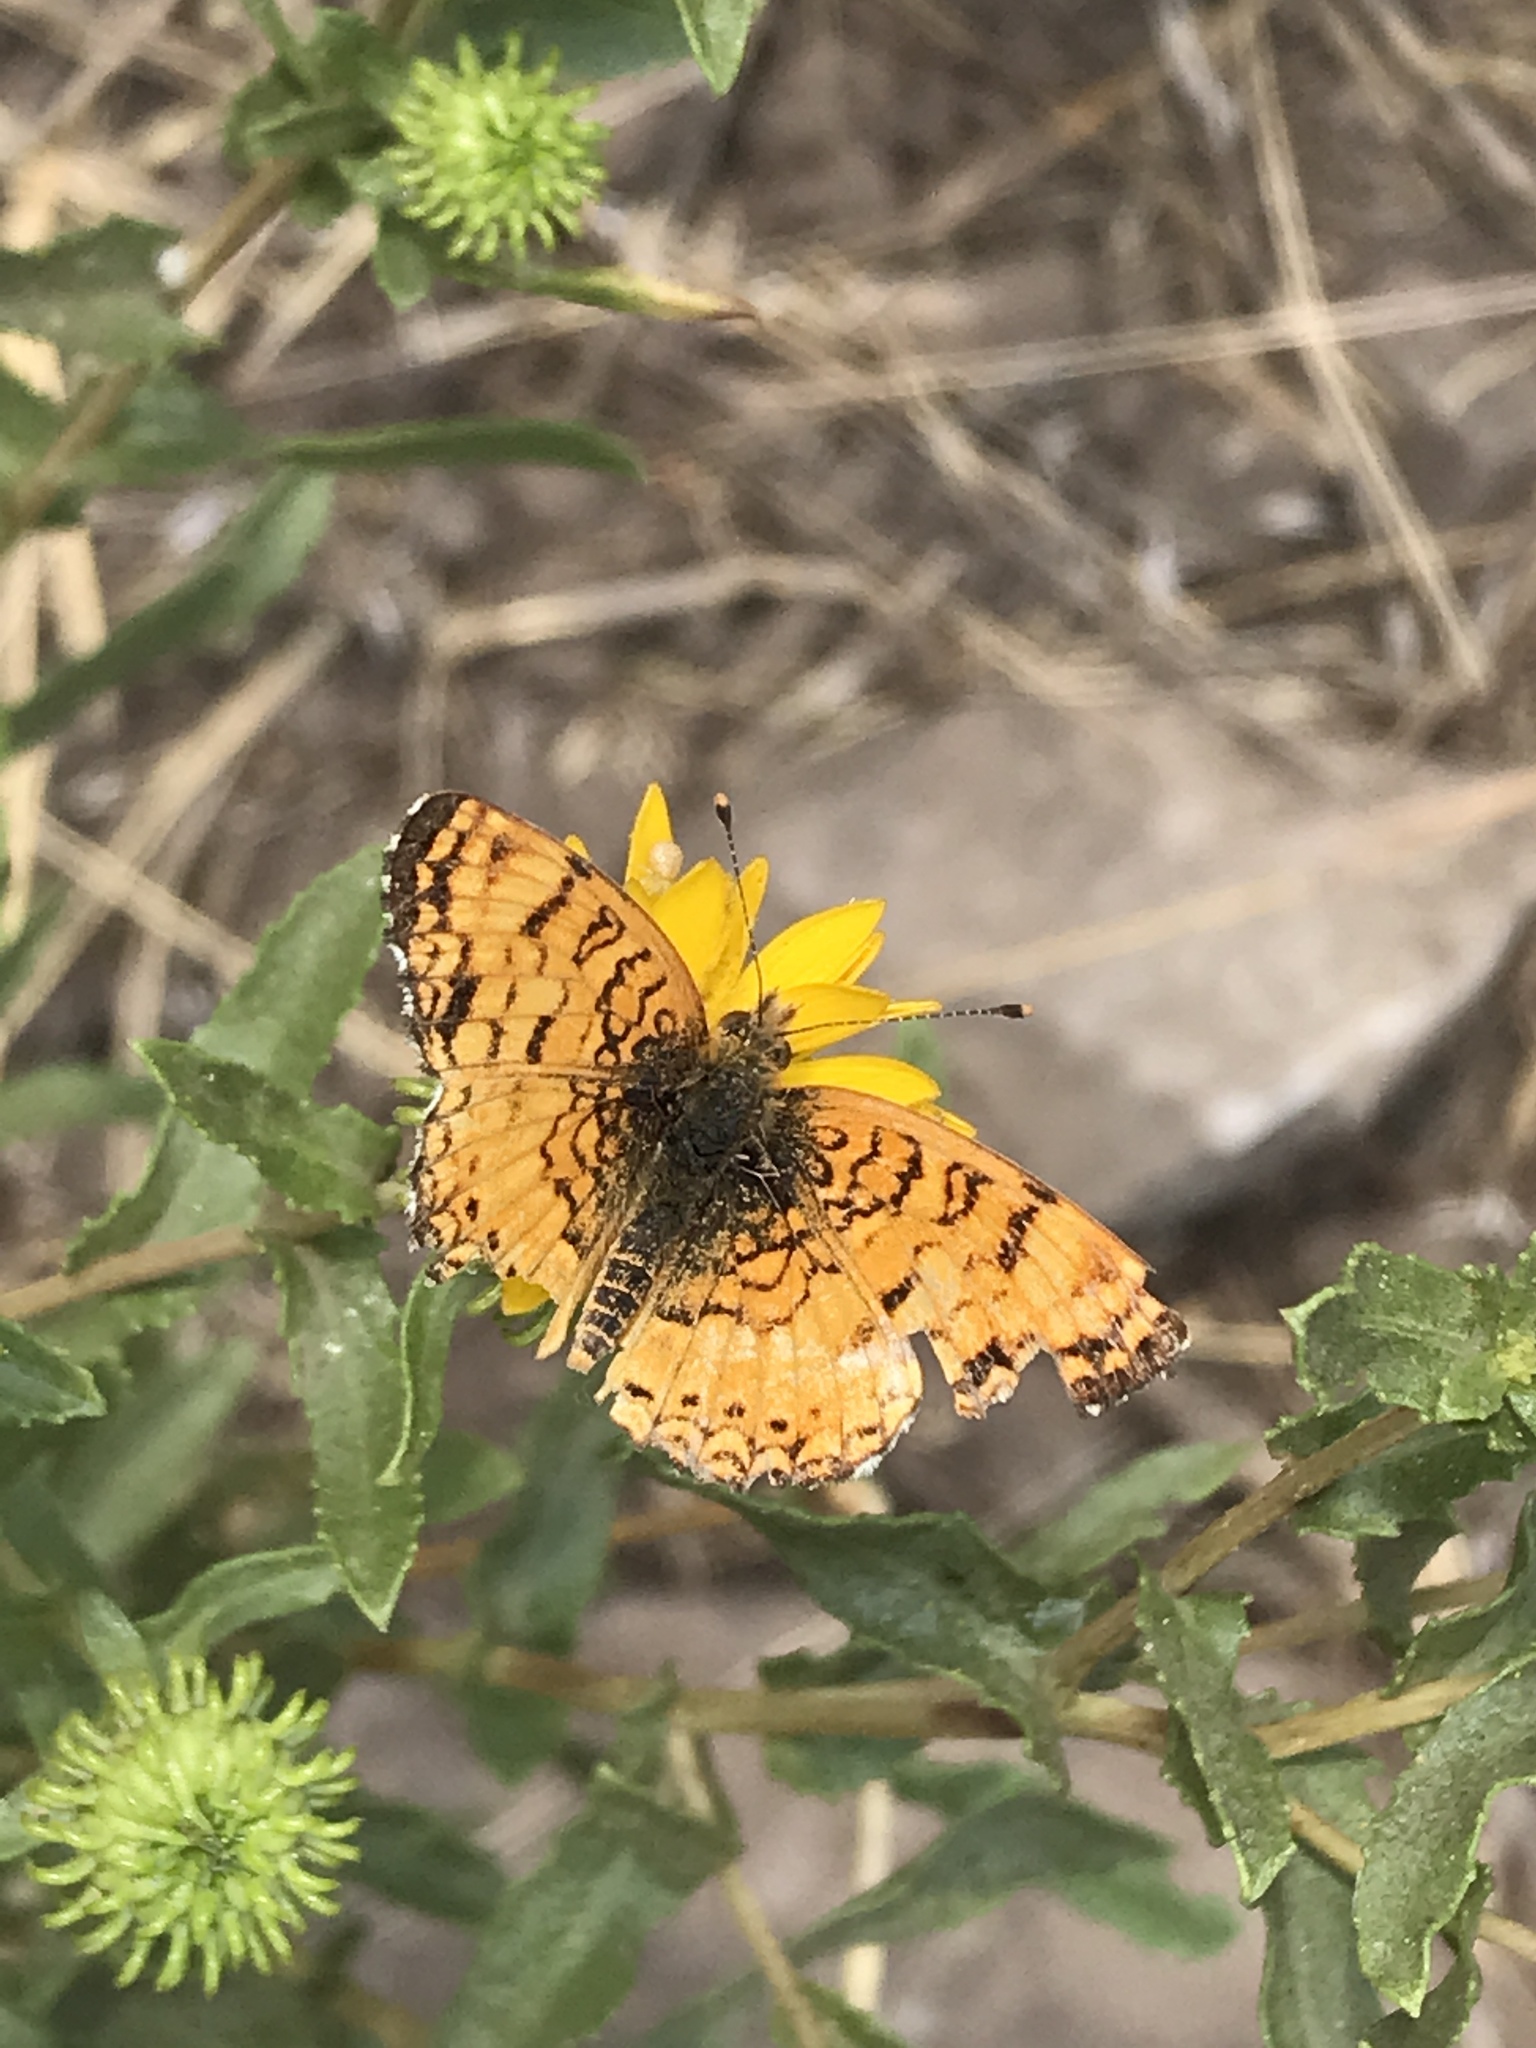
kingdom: Animalia
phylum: Arthropoda
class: Insecta
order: Lepidoptera
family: Nymphalidae
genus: Eresia
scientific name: Eresia aveyrona
